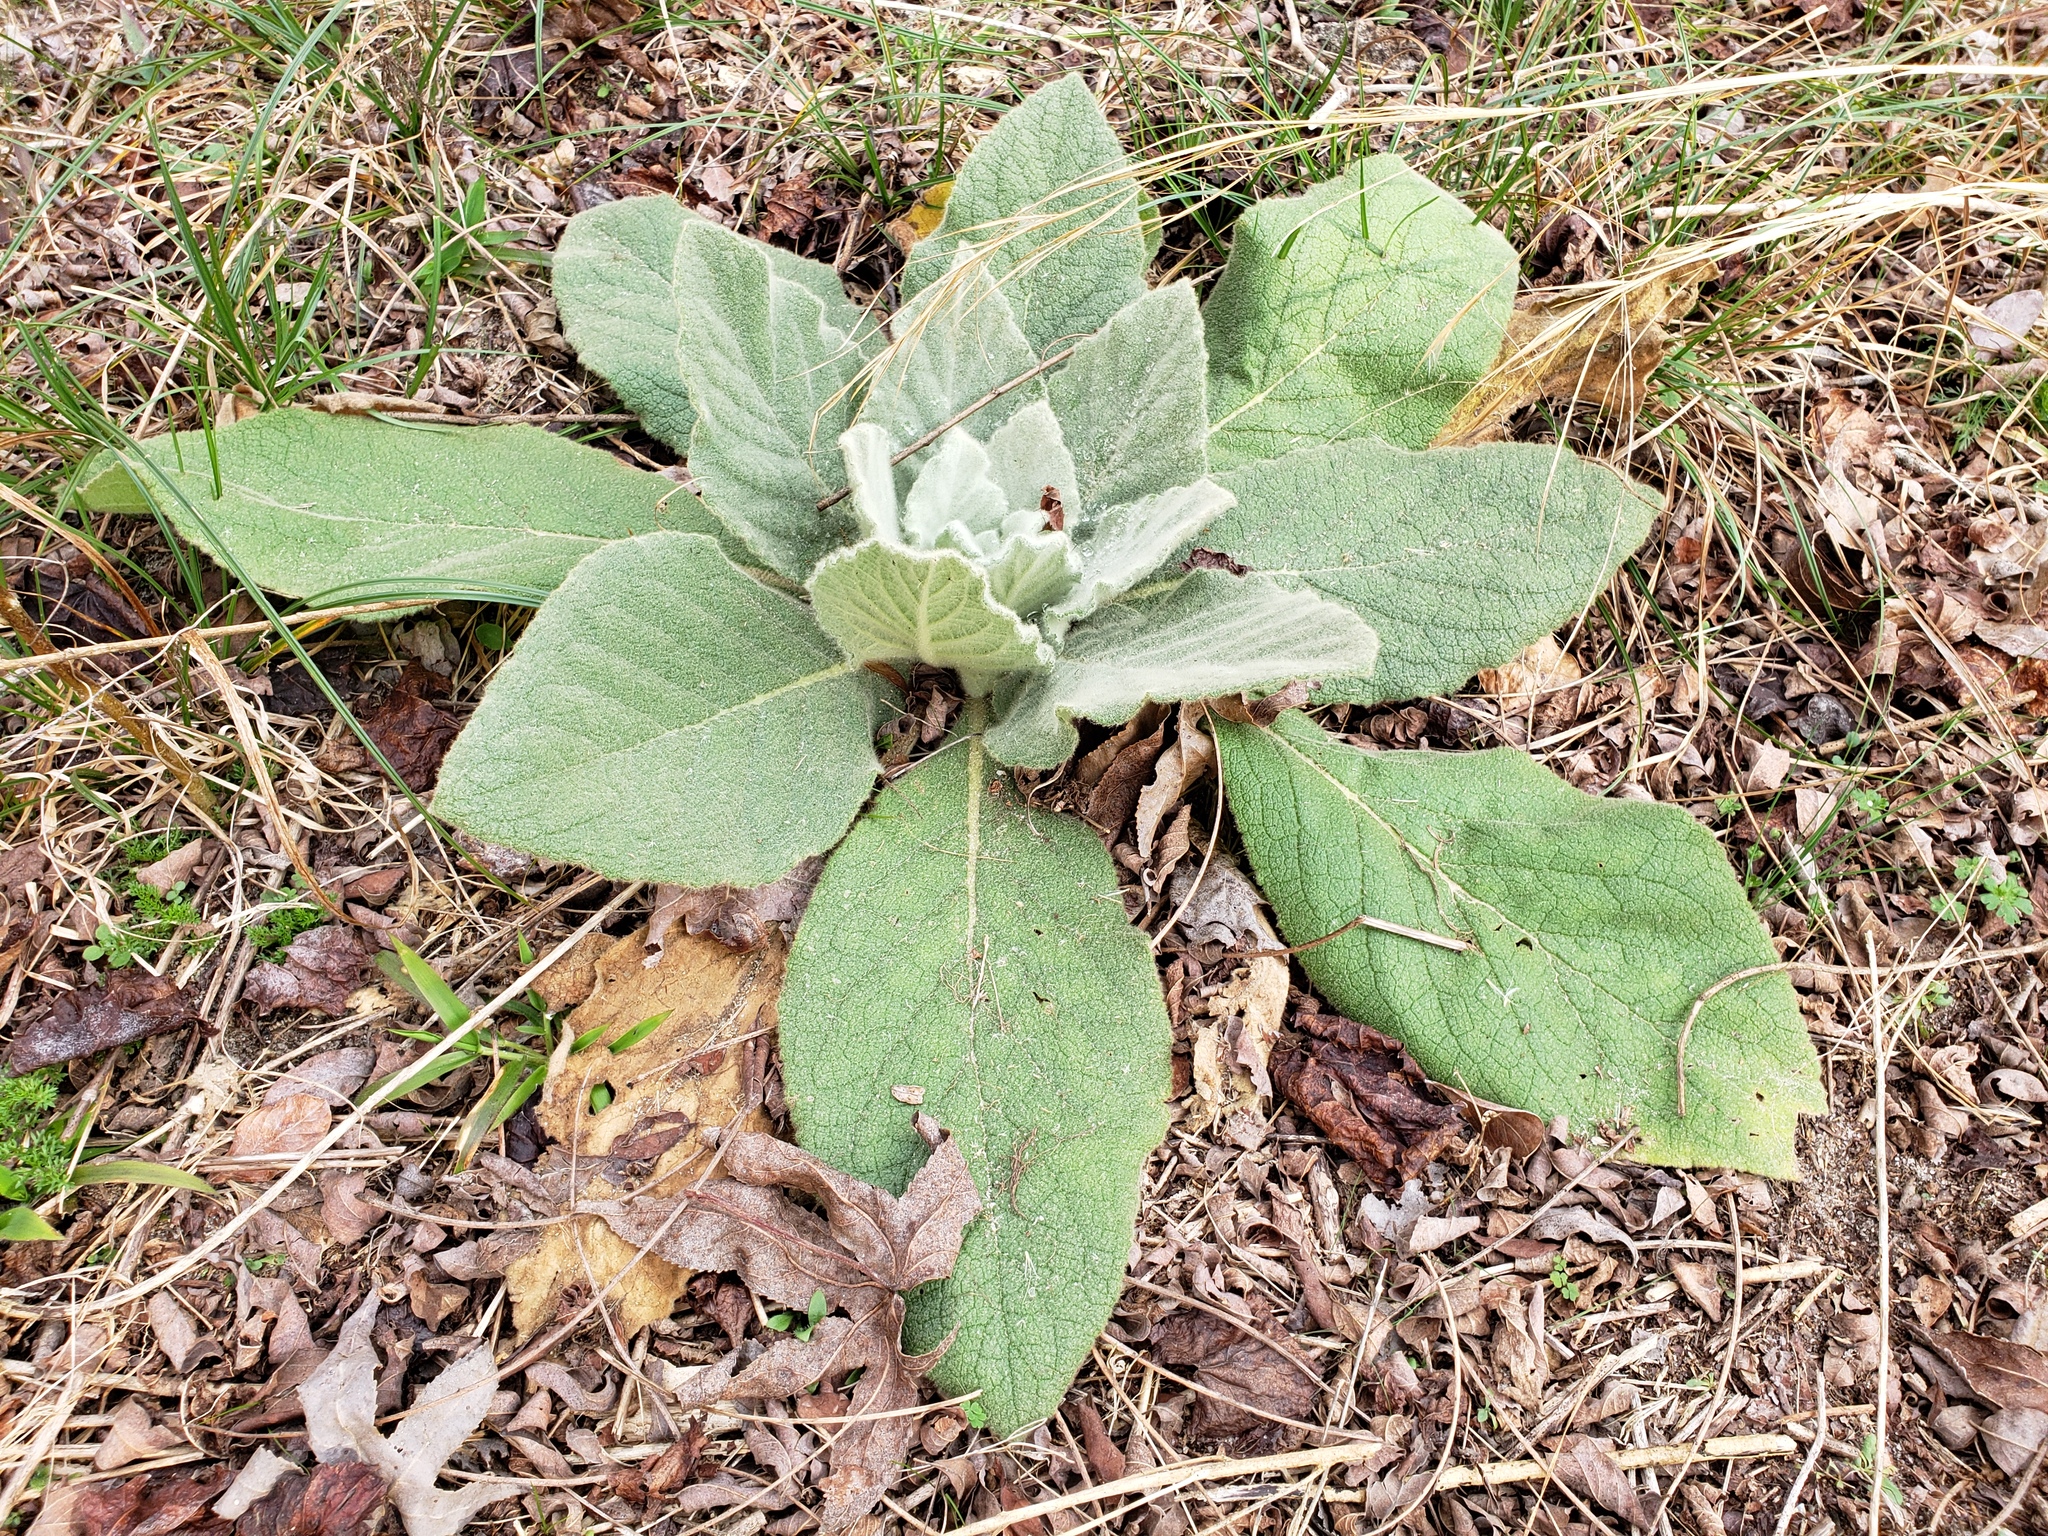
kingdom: Plantae
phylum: Tracheophyta
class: Magnoliopsida
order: Lamiales
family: Scrophulariaceae
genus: Verbascum
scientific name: Verbascum thapsus
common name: Common mullein
